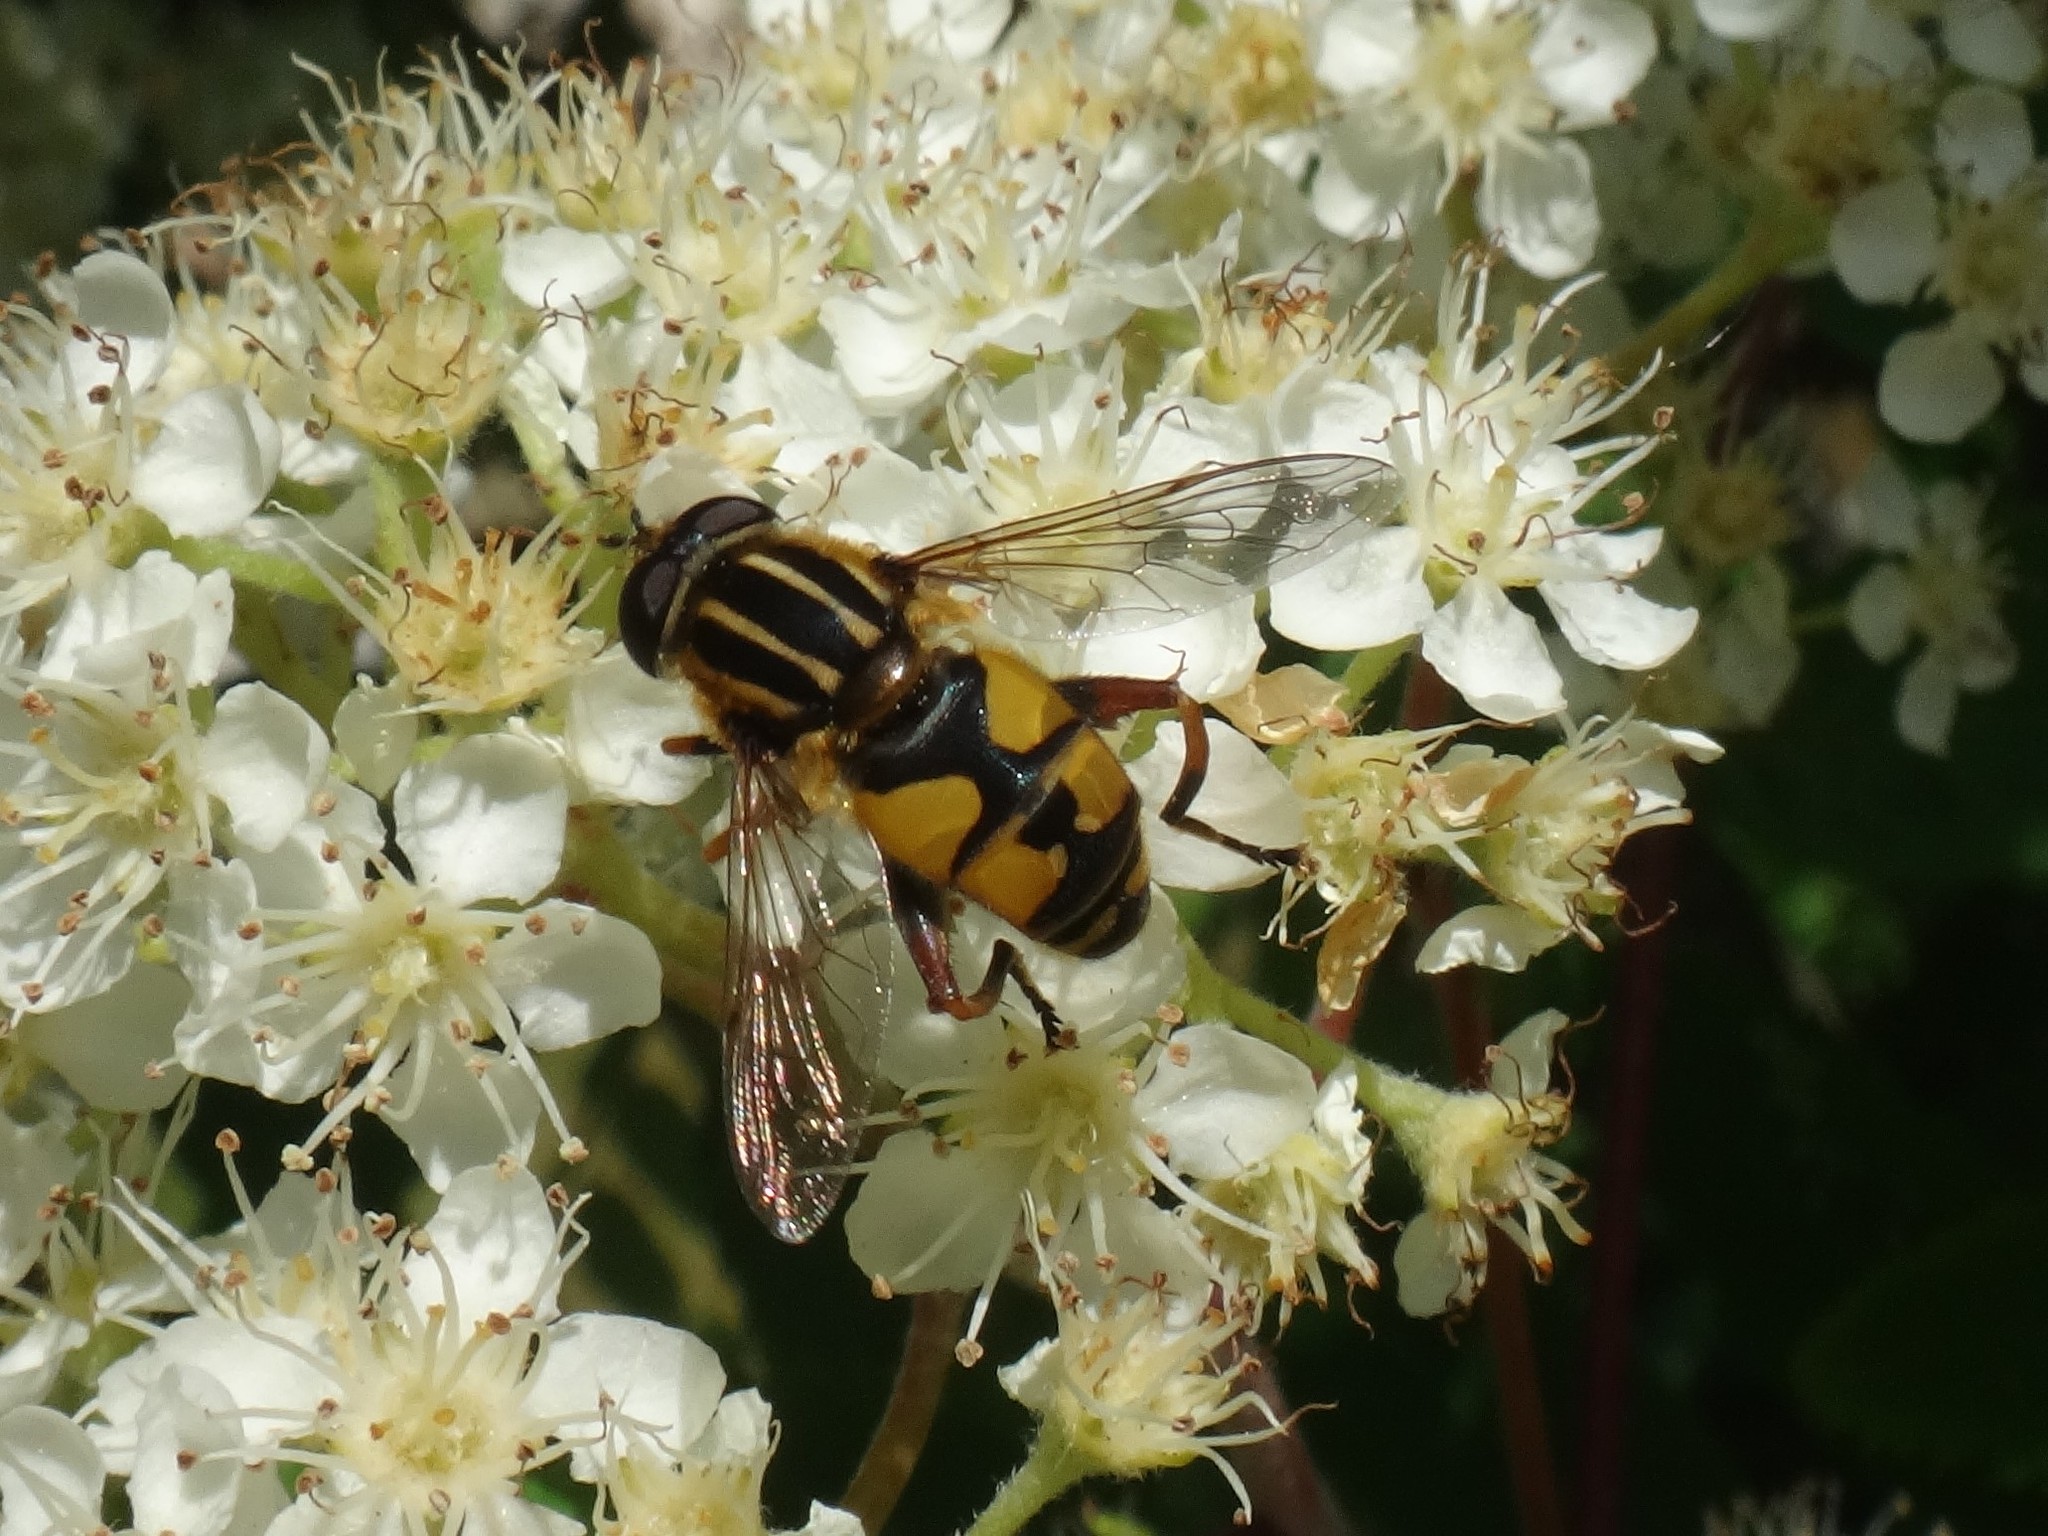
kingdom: Animalia
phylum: Arthropoda
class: Insecta
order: Diptera
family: Syrphidae
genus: Helophilus
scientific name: Helophilus pendulus
